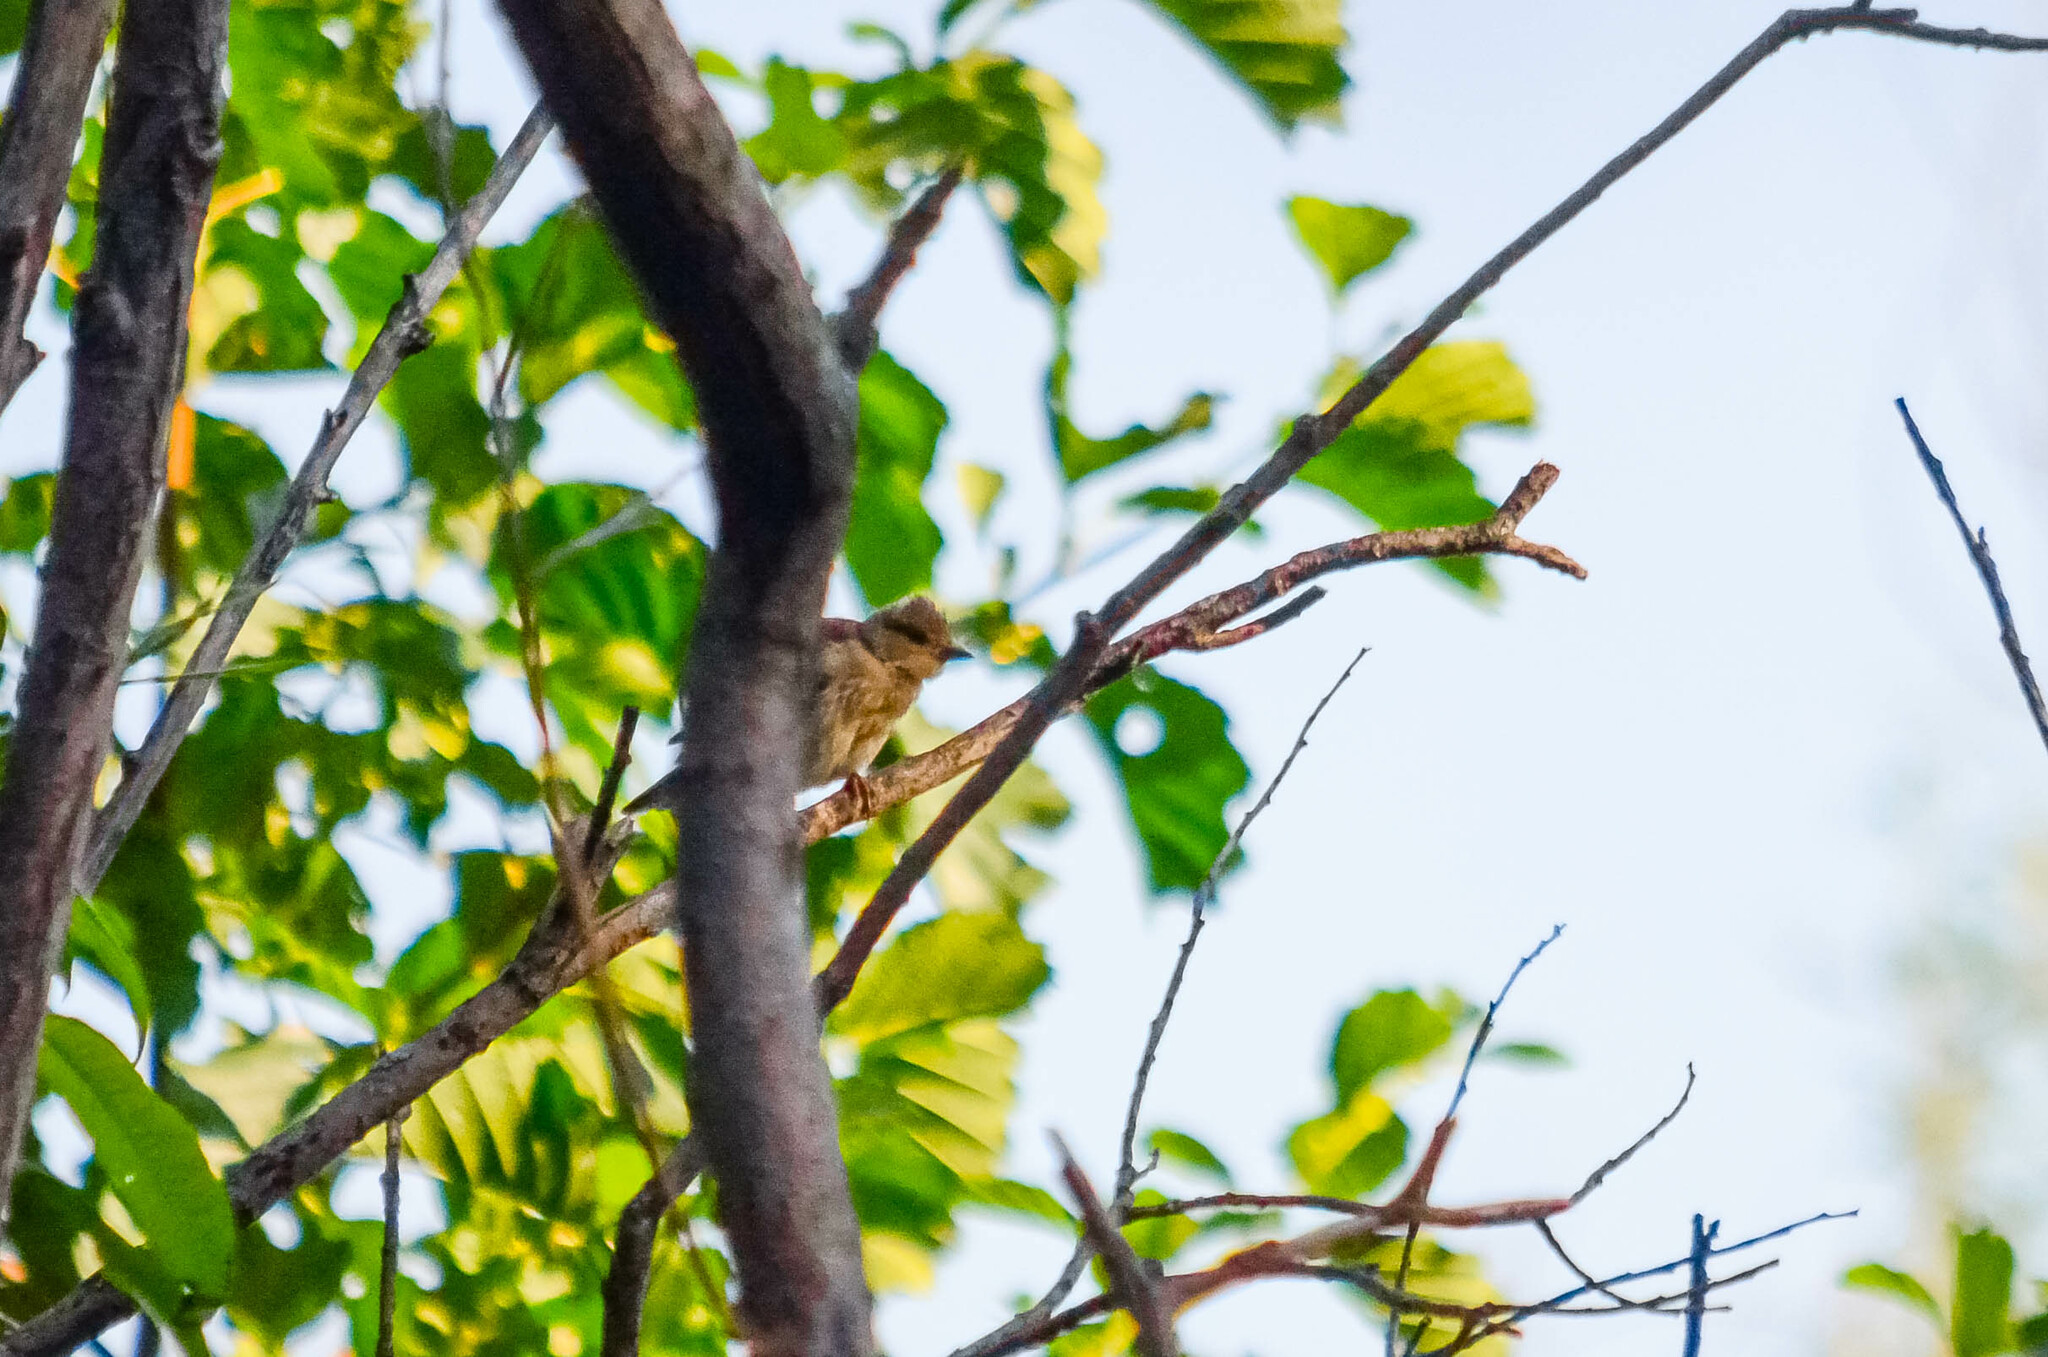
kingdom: Animalia
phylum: Chordata
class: Aves
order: Passeriformes
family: Fringillidae
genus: Fringilla
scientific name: Fringilla coelebs
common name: Common chaffinch
